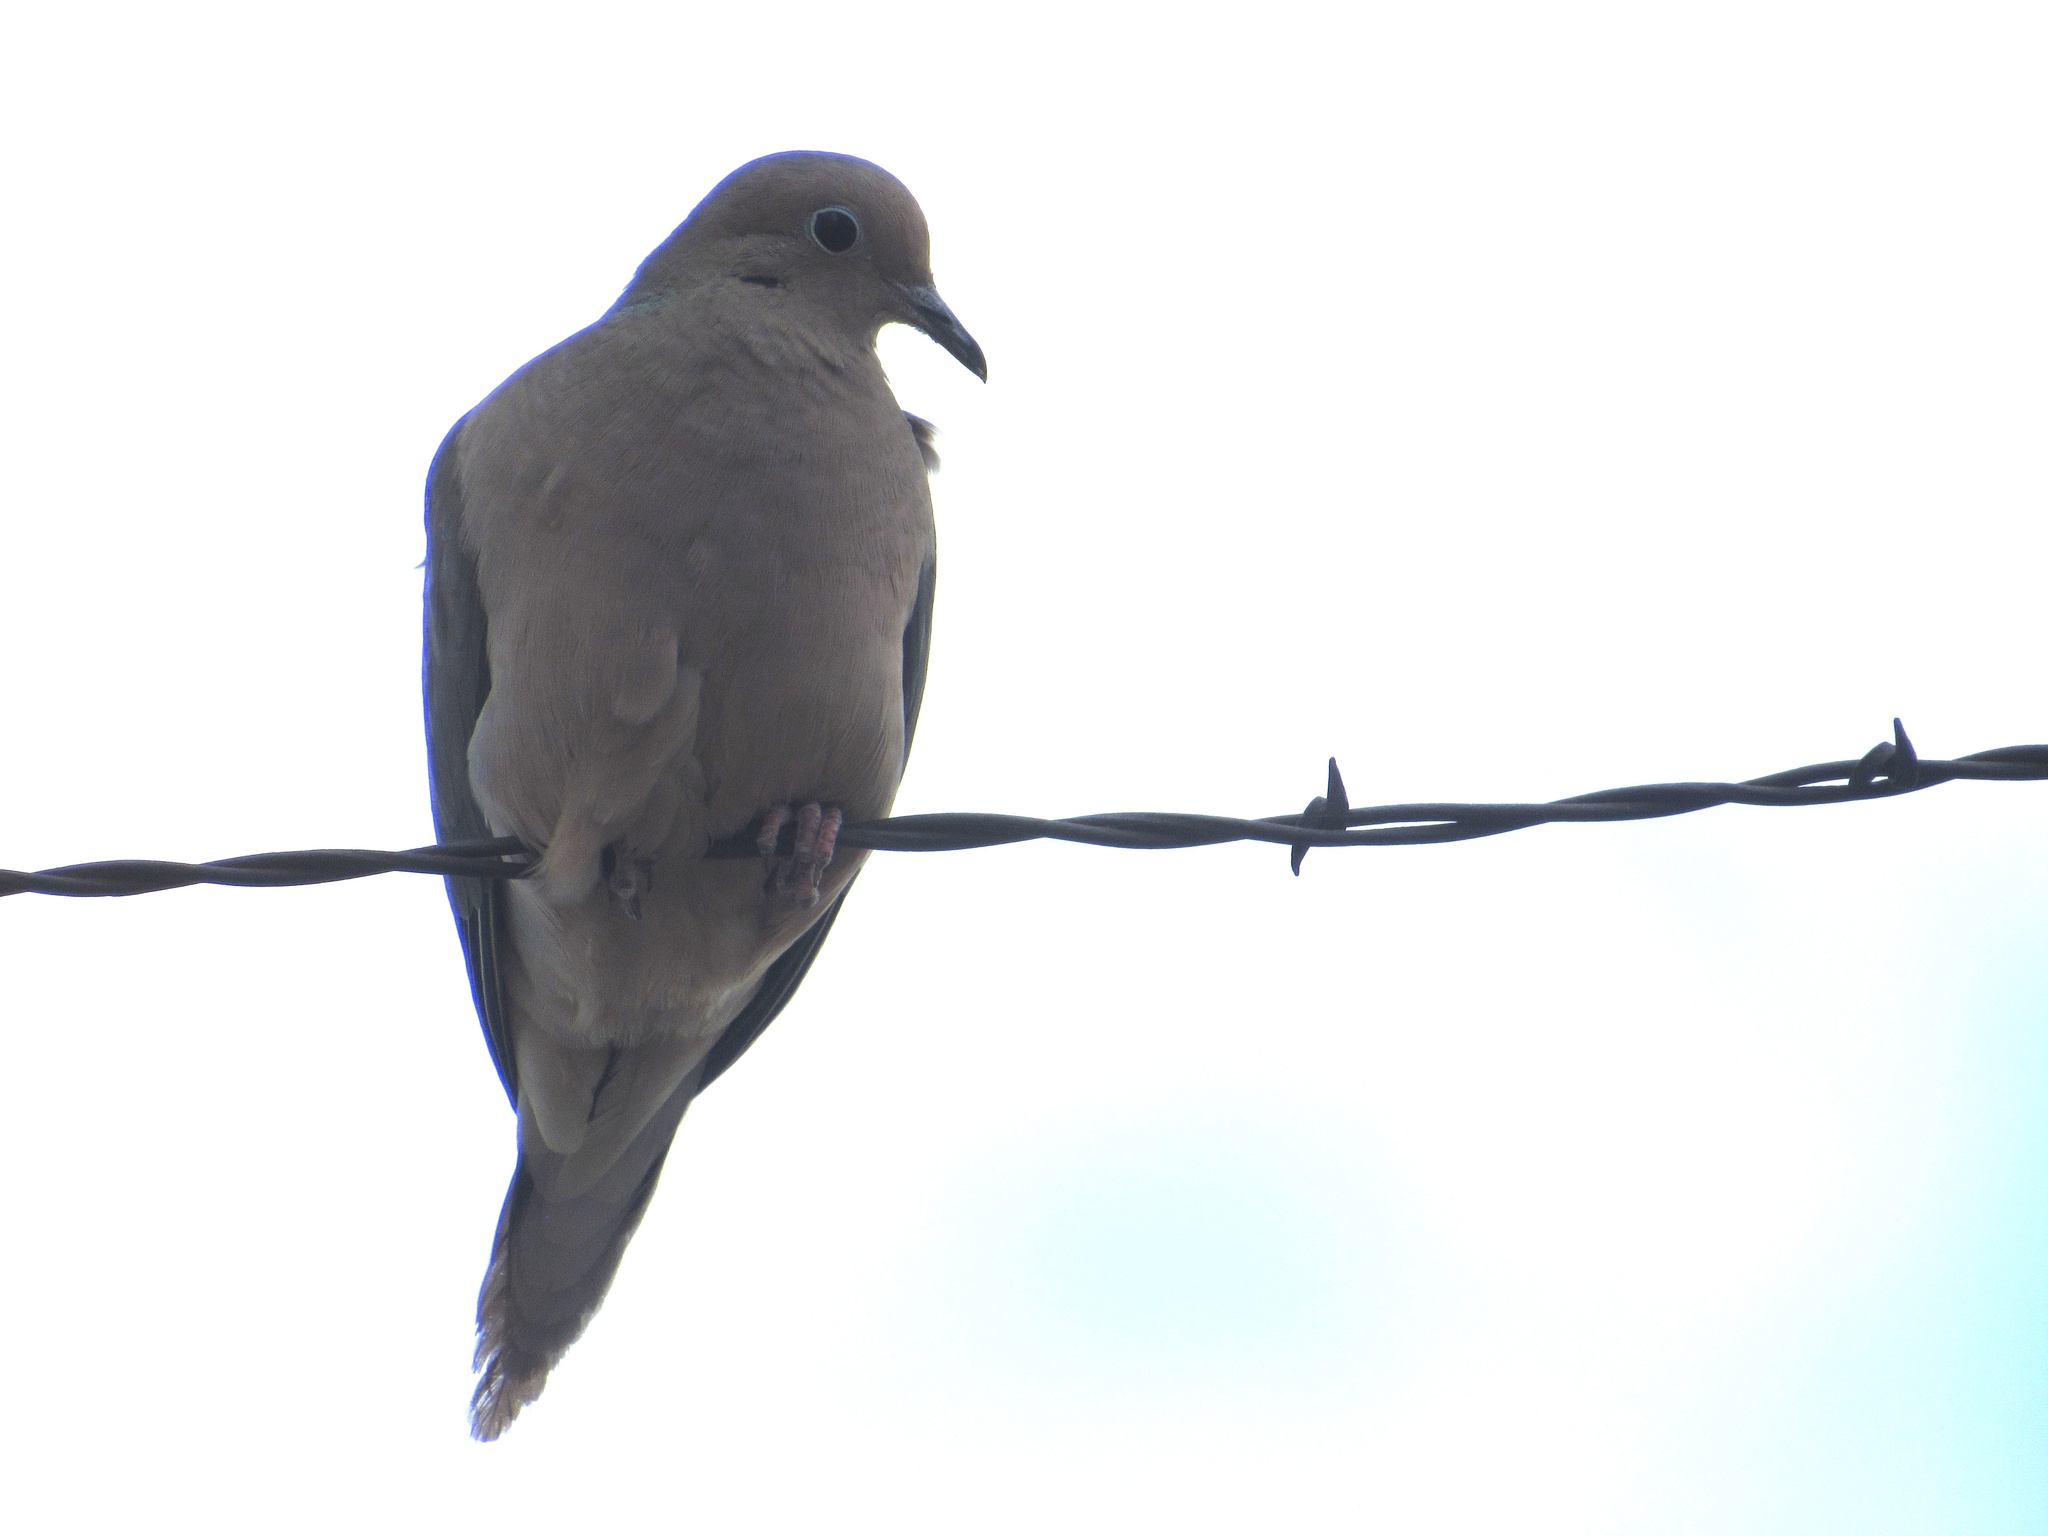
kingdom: Animalia
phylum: Chordata
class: Aves
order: Columbiformes
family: Columbidae
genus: Zenaida
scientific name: Zenaida macroura
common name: Mourning dove
